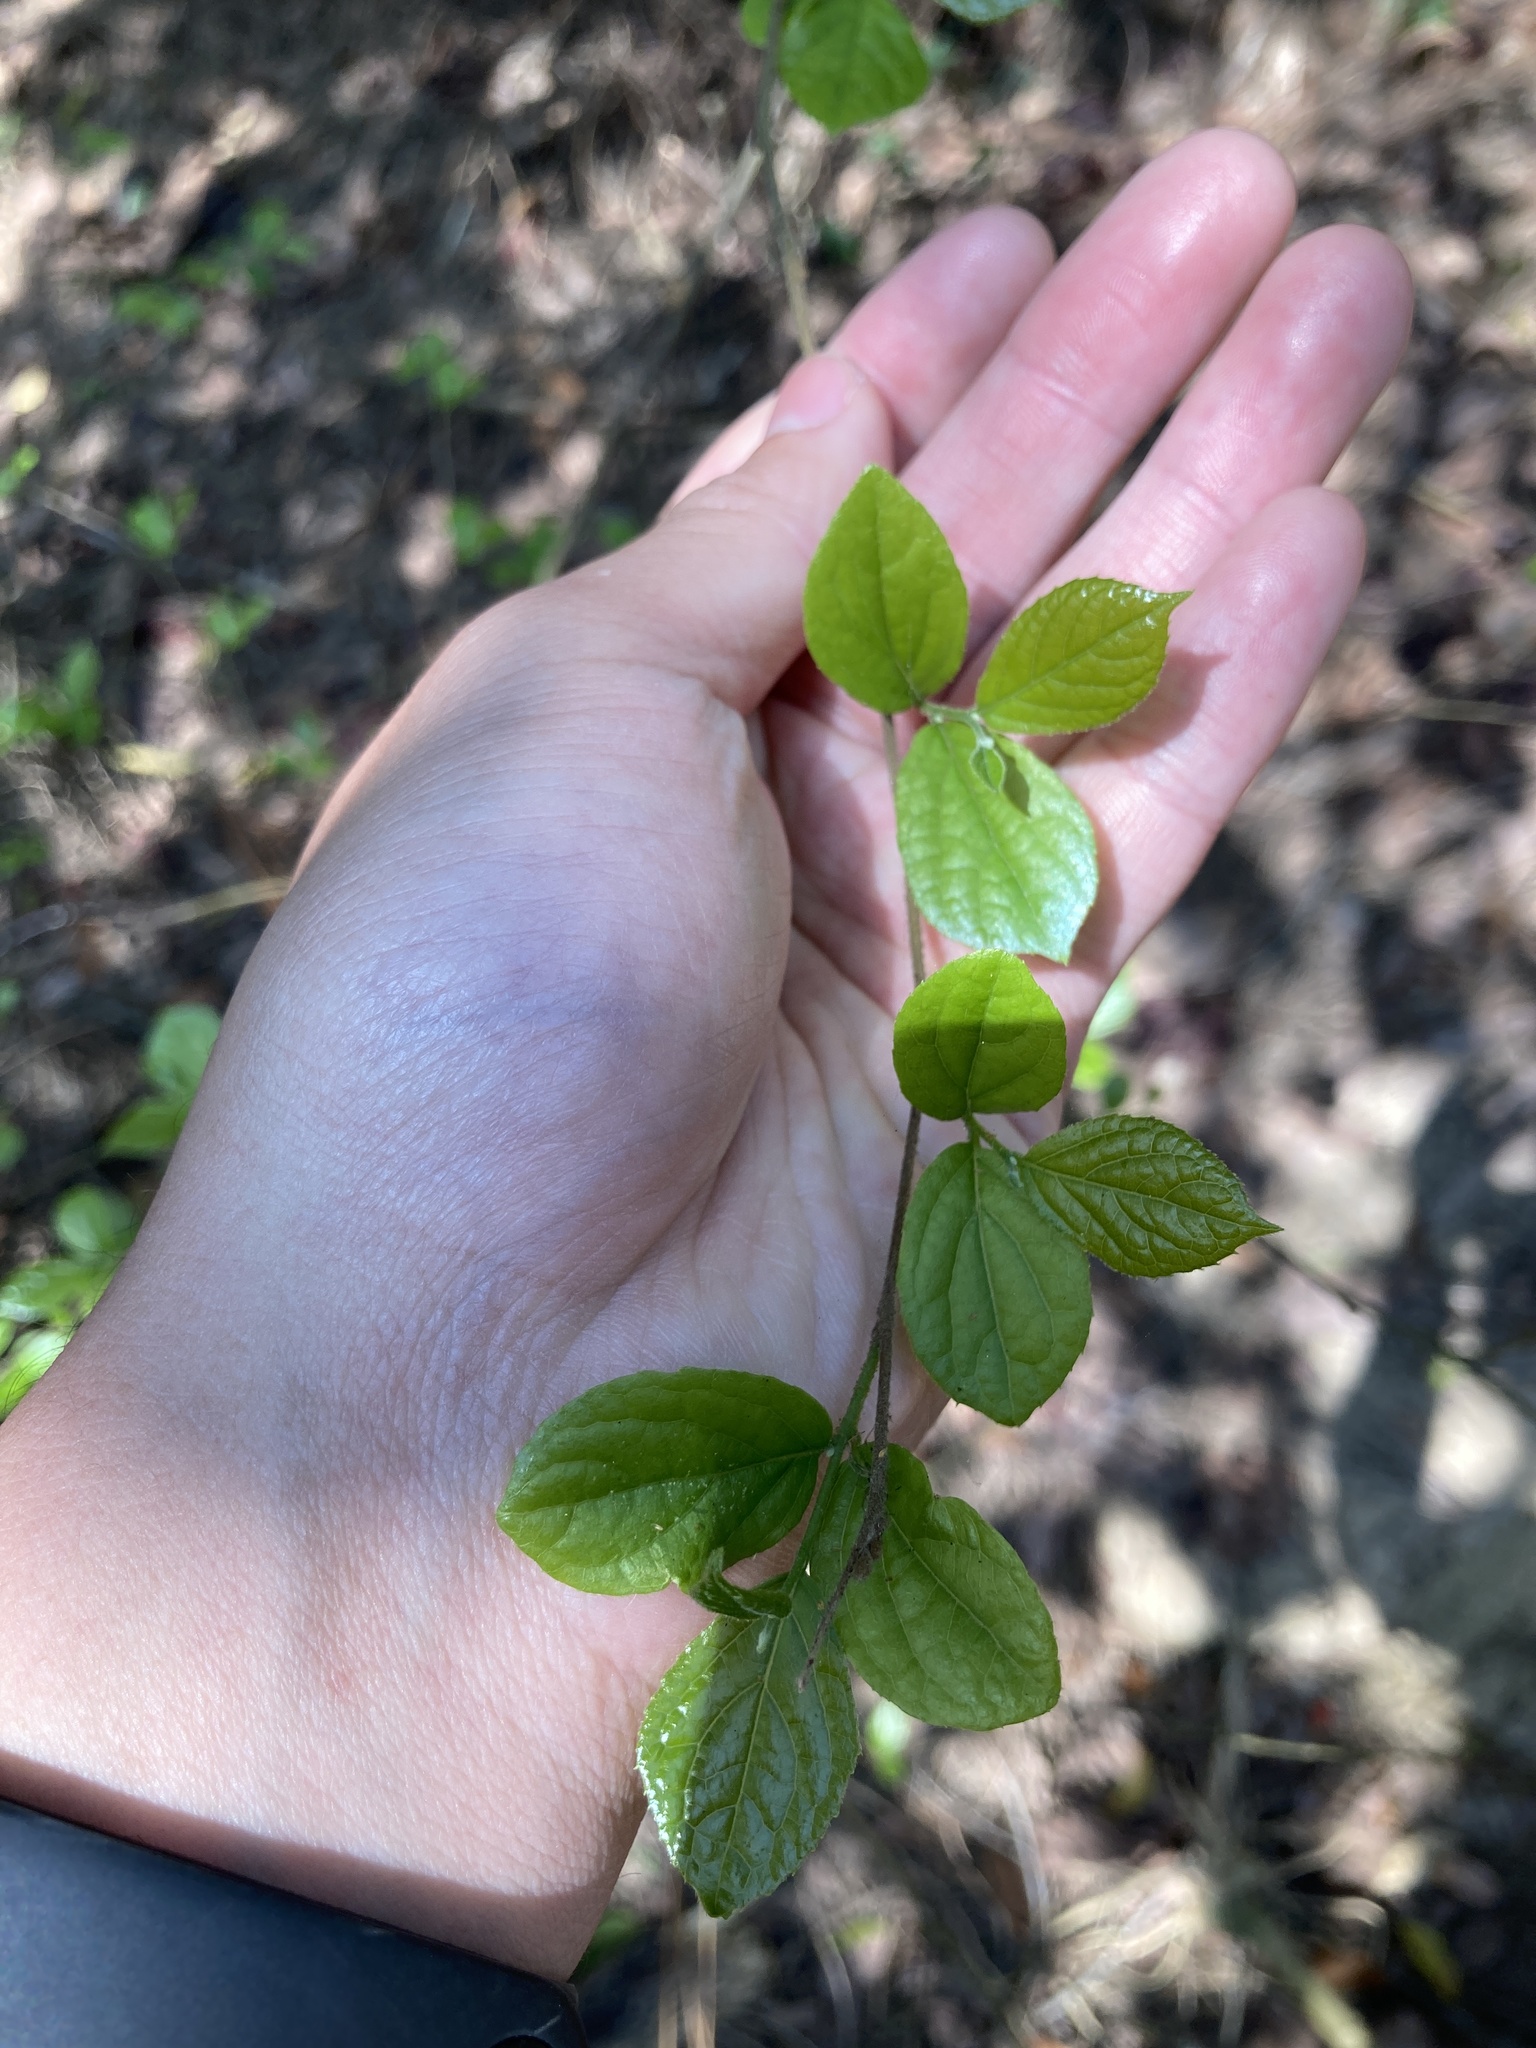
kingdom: Plantae
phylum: Tracheophyta
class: Magnoliopsida
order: Ericales
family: Symplocaceae
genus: Symplocos
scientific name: Symplocos paniculata
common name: Sapphire-berry
